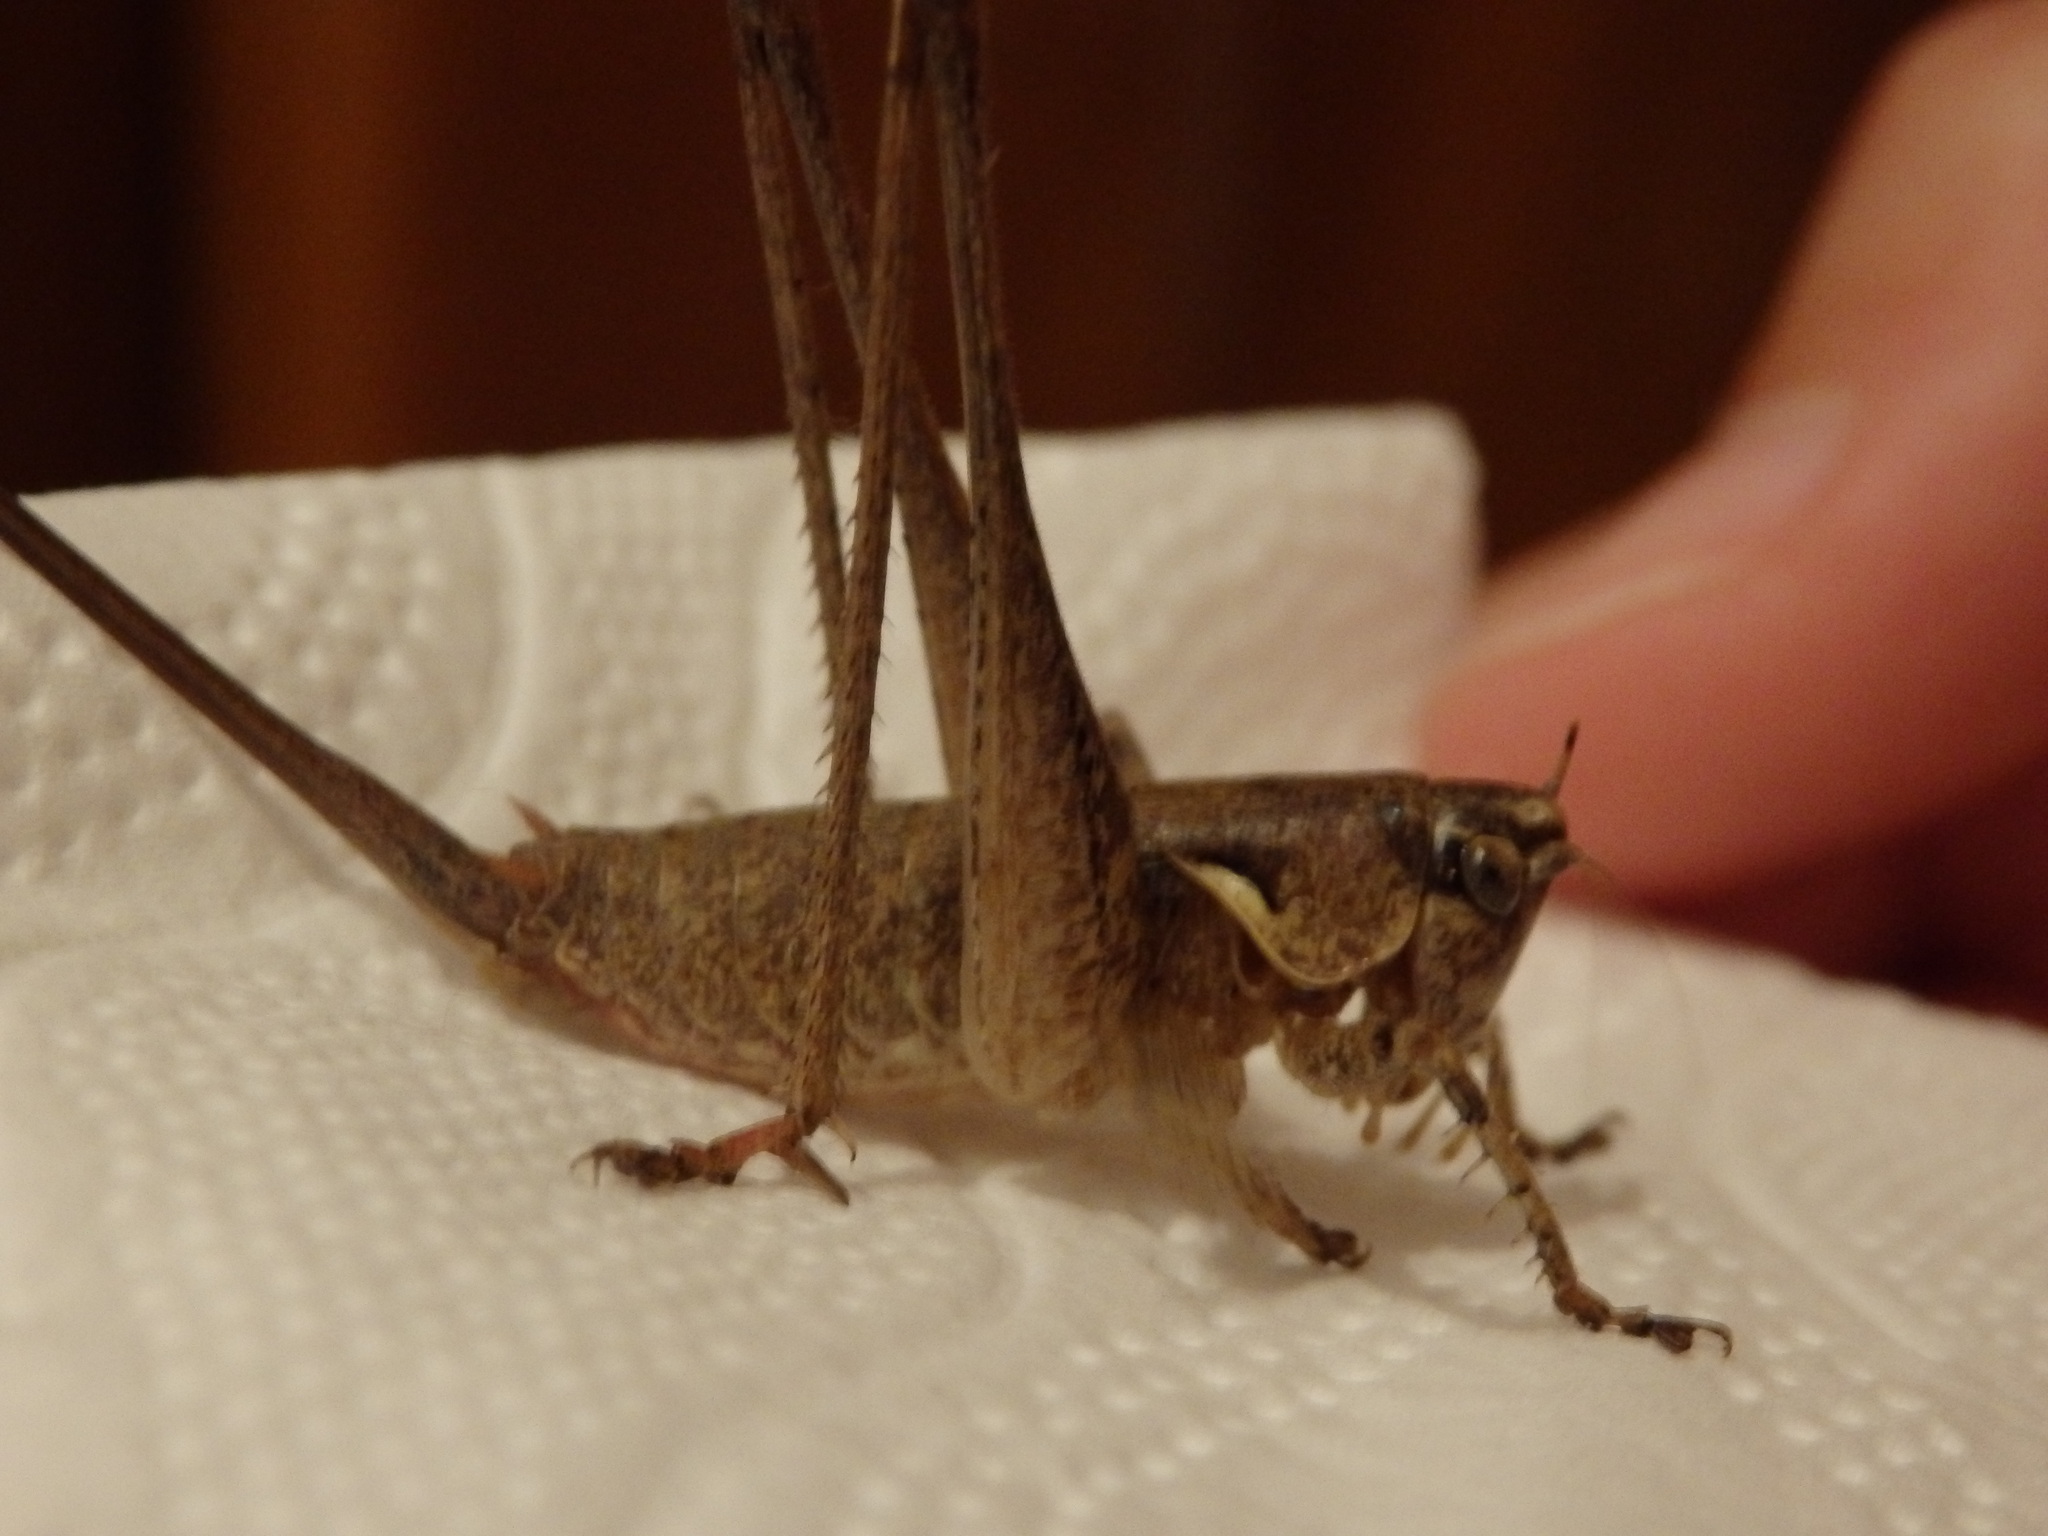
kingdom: Animalia
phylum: Arthropoda
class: Insecta
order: Orthoptera
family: Tettigoniidae
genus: Antaxius
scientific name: Antaxius spinibrachius
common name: Spiny-legged bush-cricket
